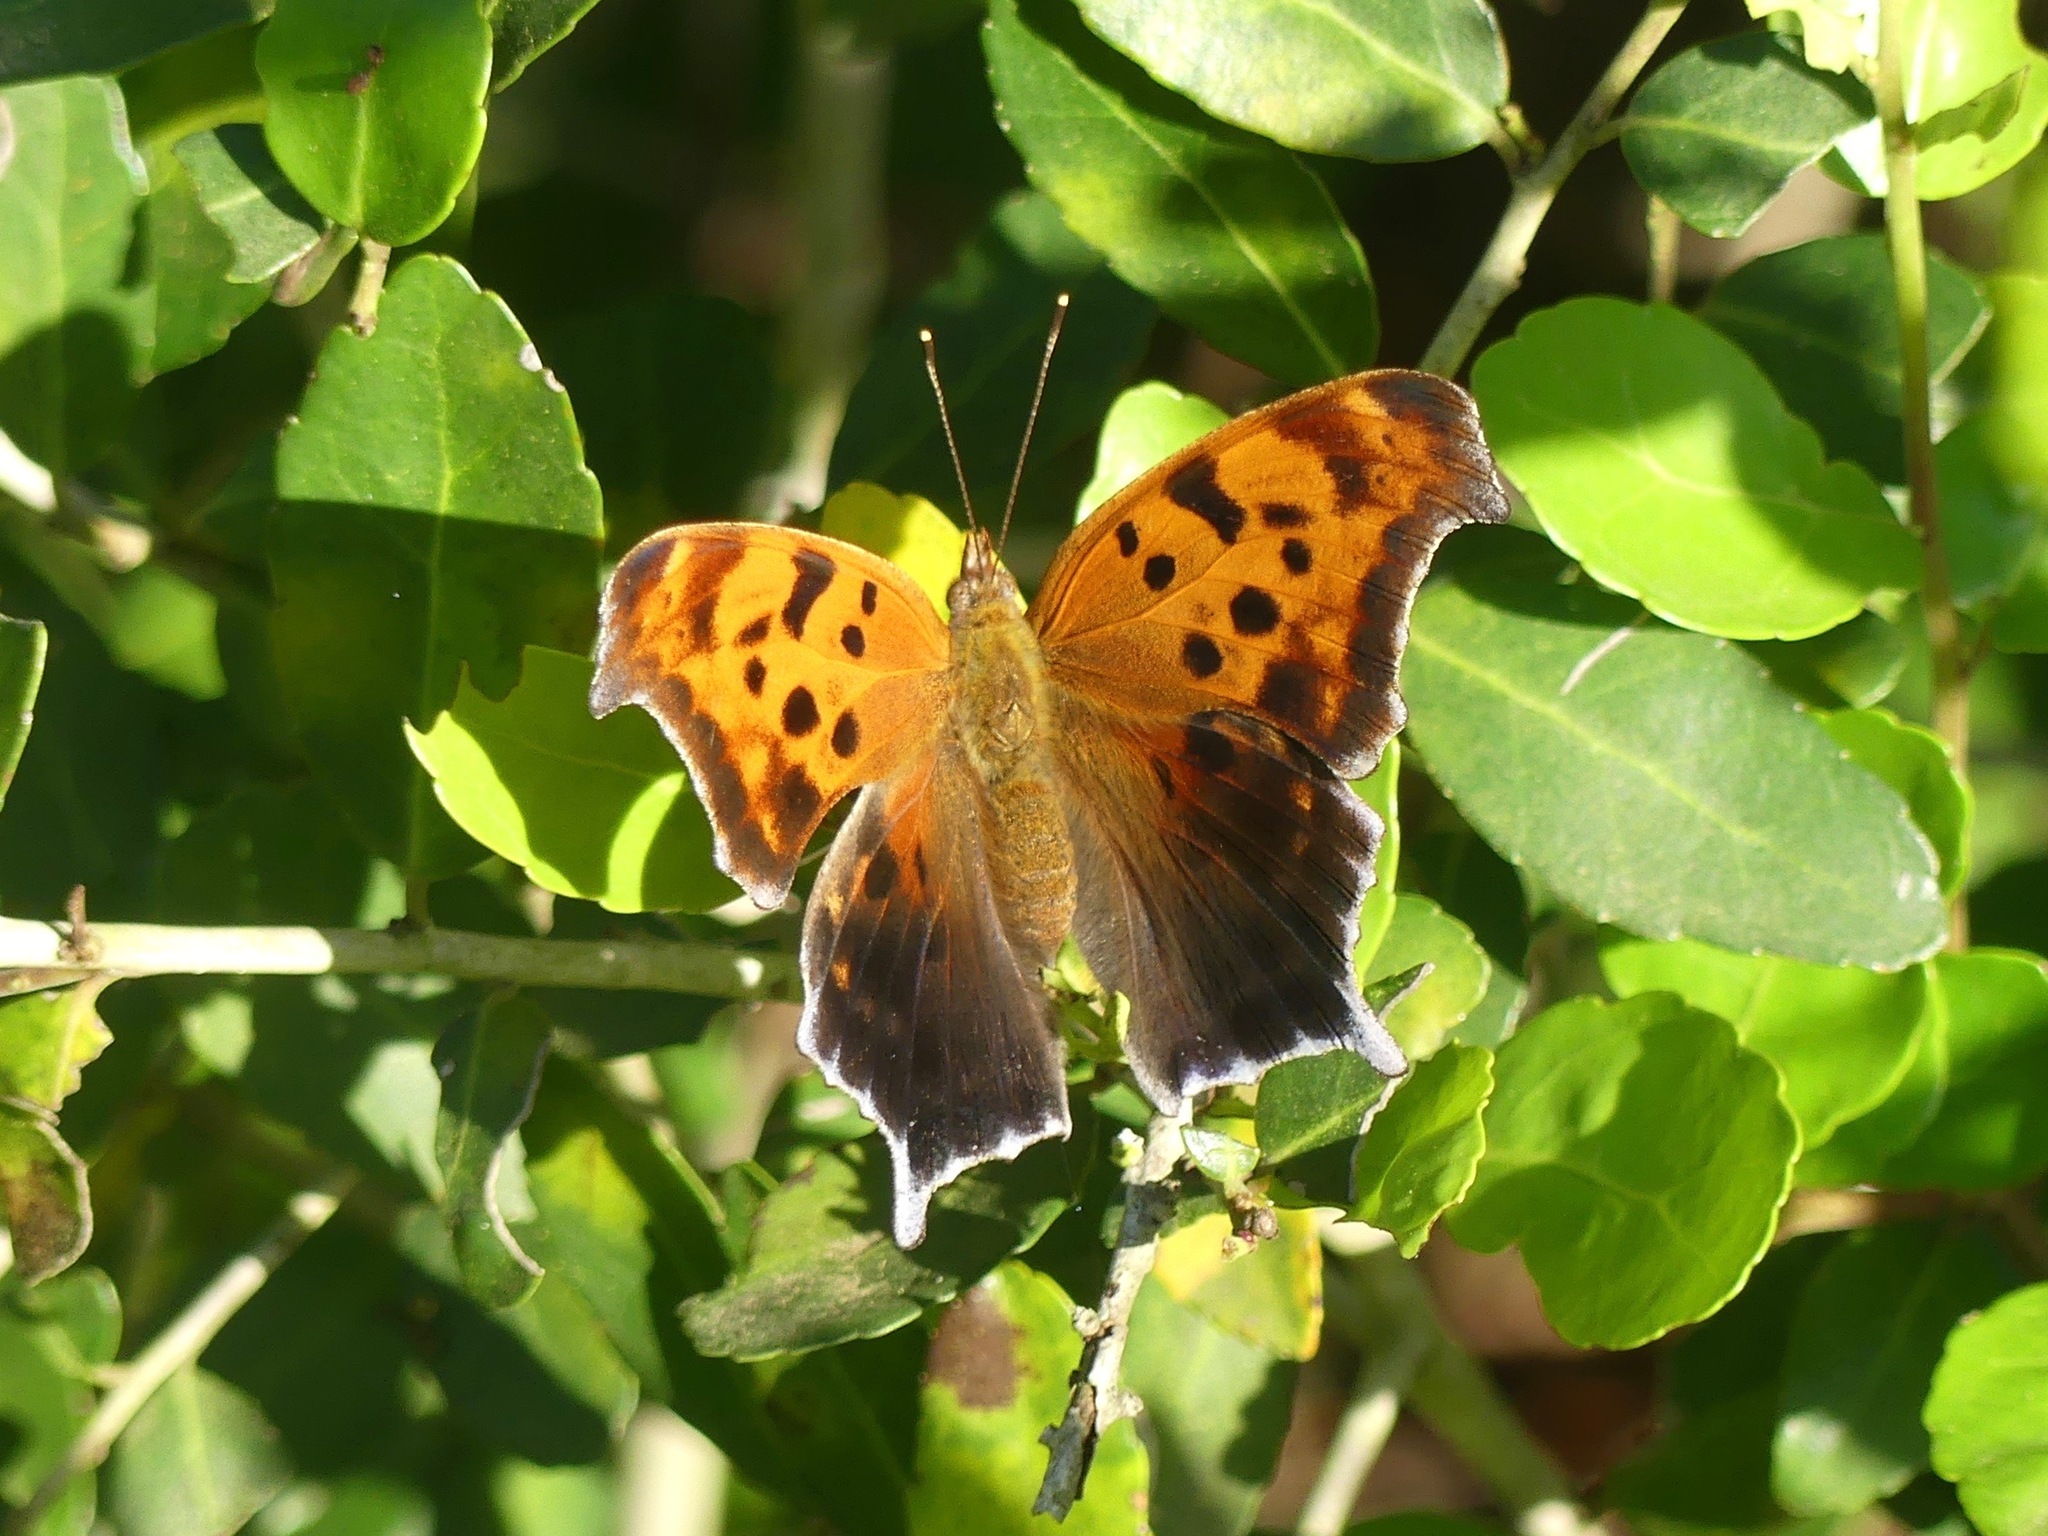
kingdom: Animalia
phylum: Arthropoda
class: Insecta
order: Lepidoptera
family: Nymphalidae
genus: Polygonia
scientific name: Polygonia interrogationis
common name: Question mark
